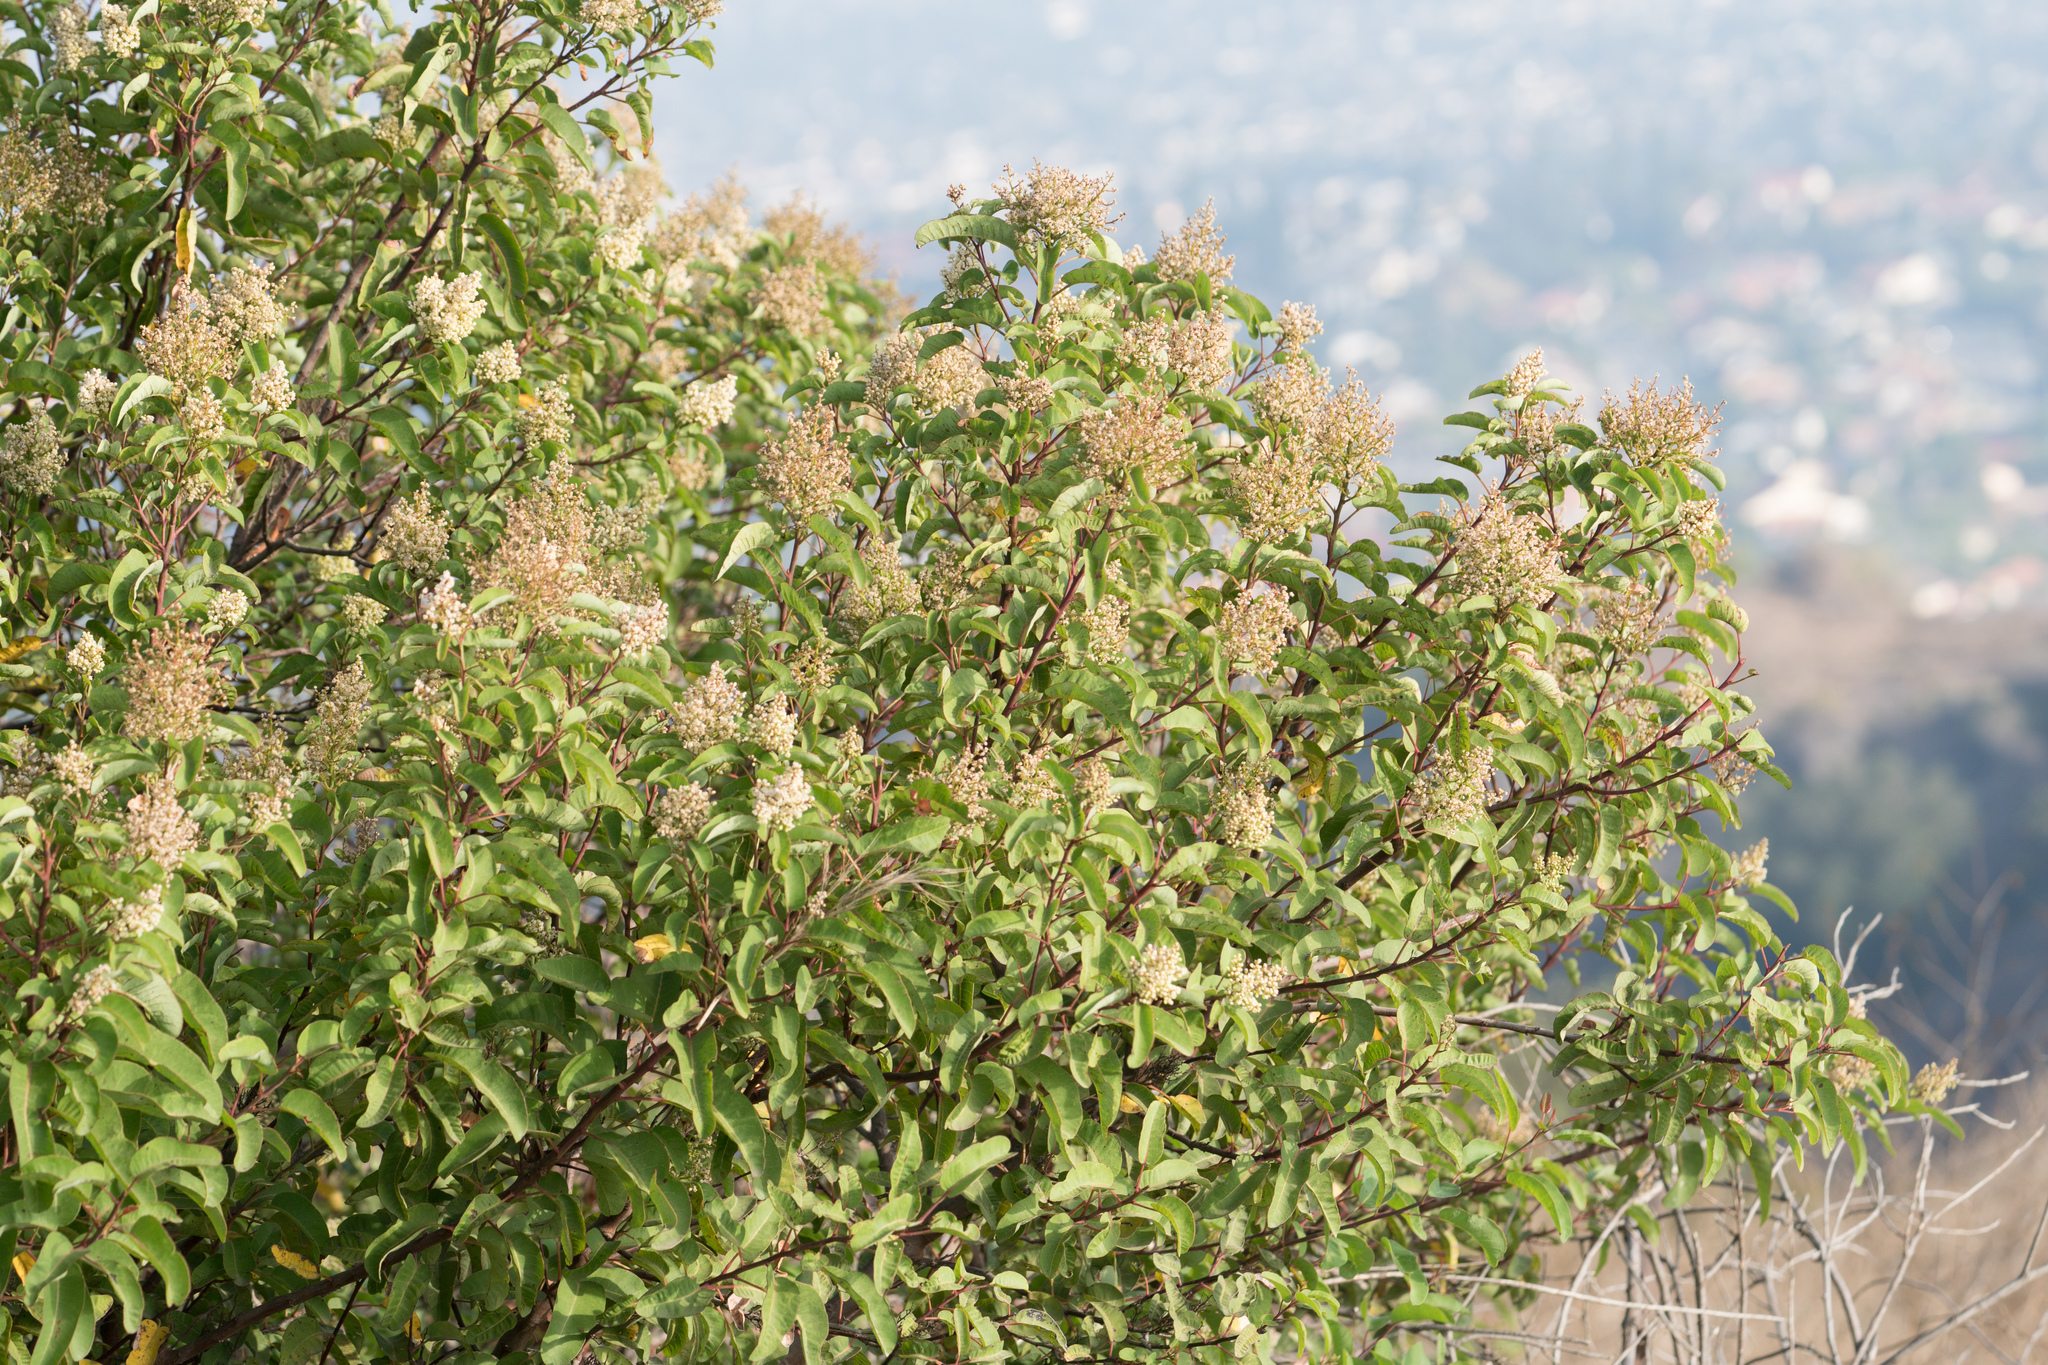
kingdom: Plantae
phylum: Tracheophyta
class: Magnoliopsida
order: Sapindales
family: Anacardiaceae
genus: Malosma
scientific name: Malosma laurina
